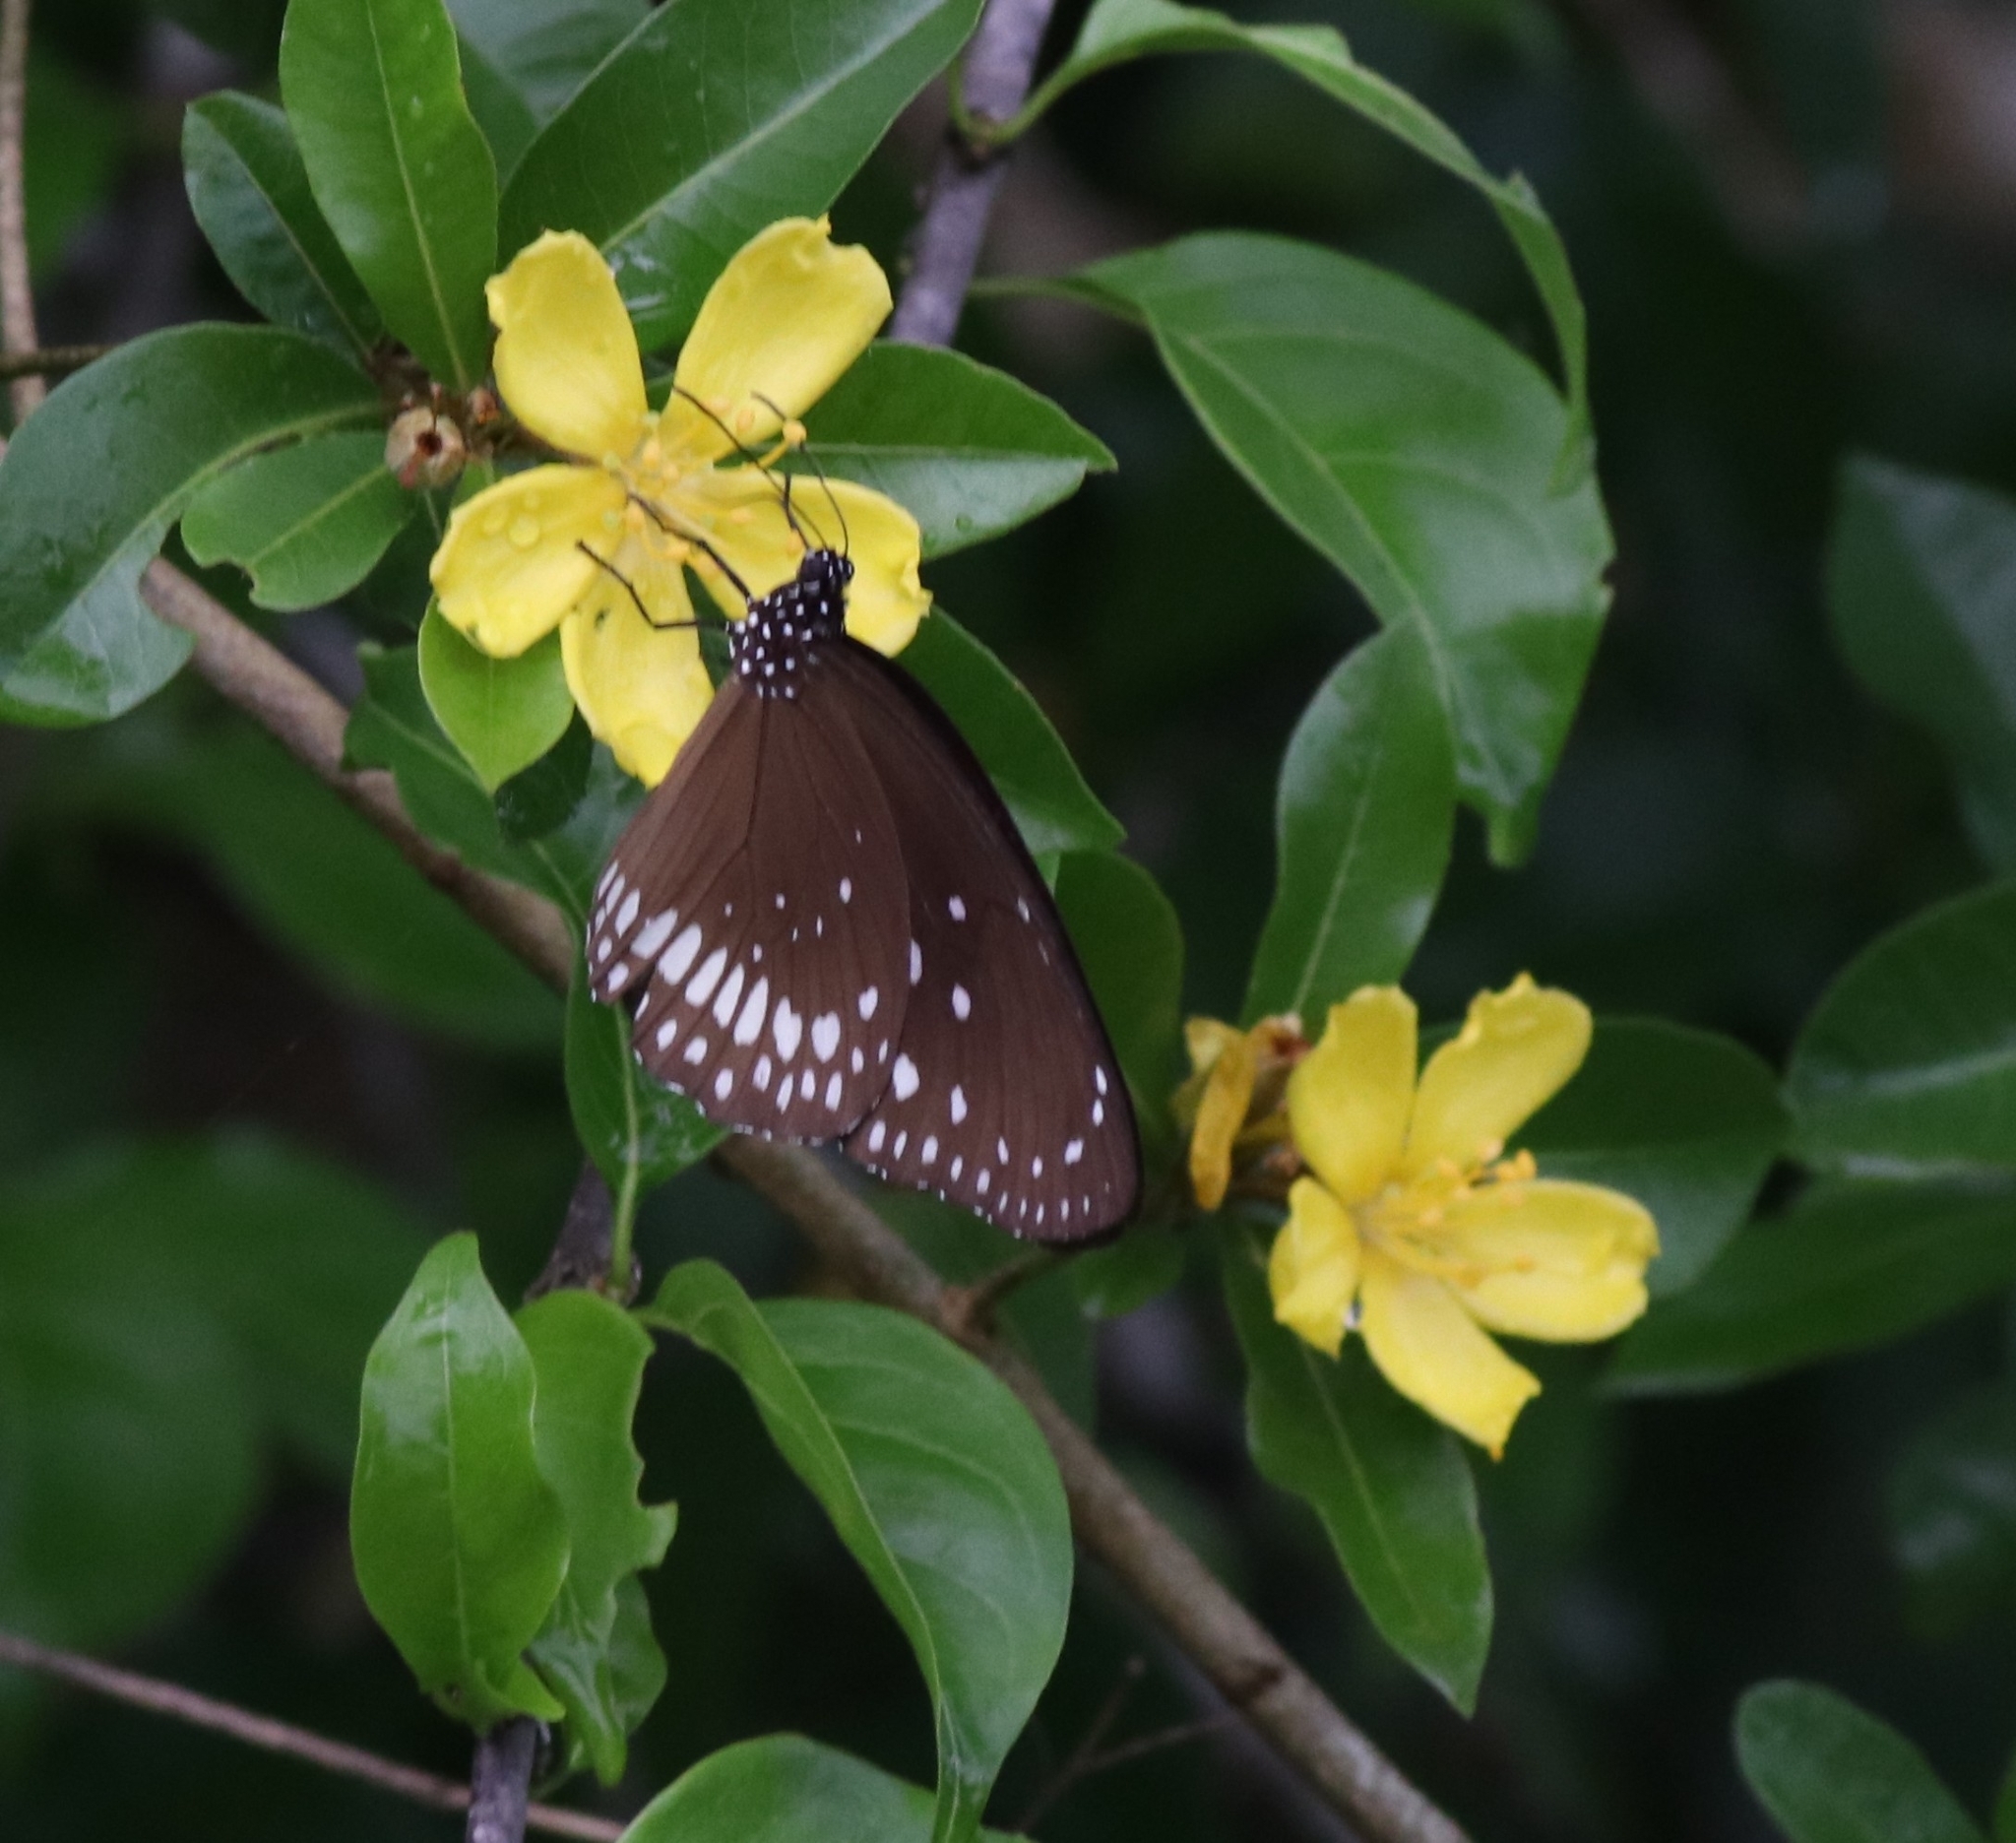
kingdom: Animalia
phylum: Arthropoda
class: Insecta
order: Lepidoptera
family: Nymphalidae
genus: Euploea
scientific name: Euploea core
